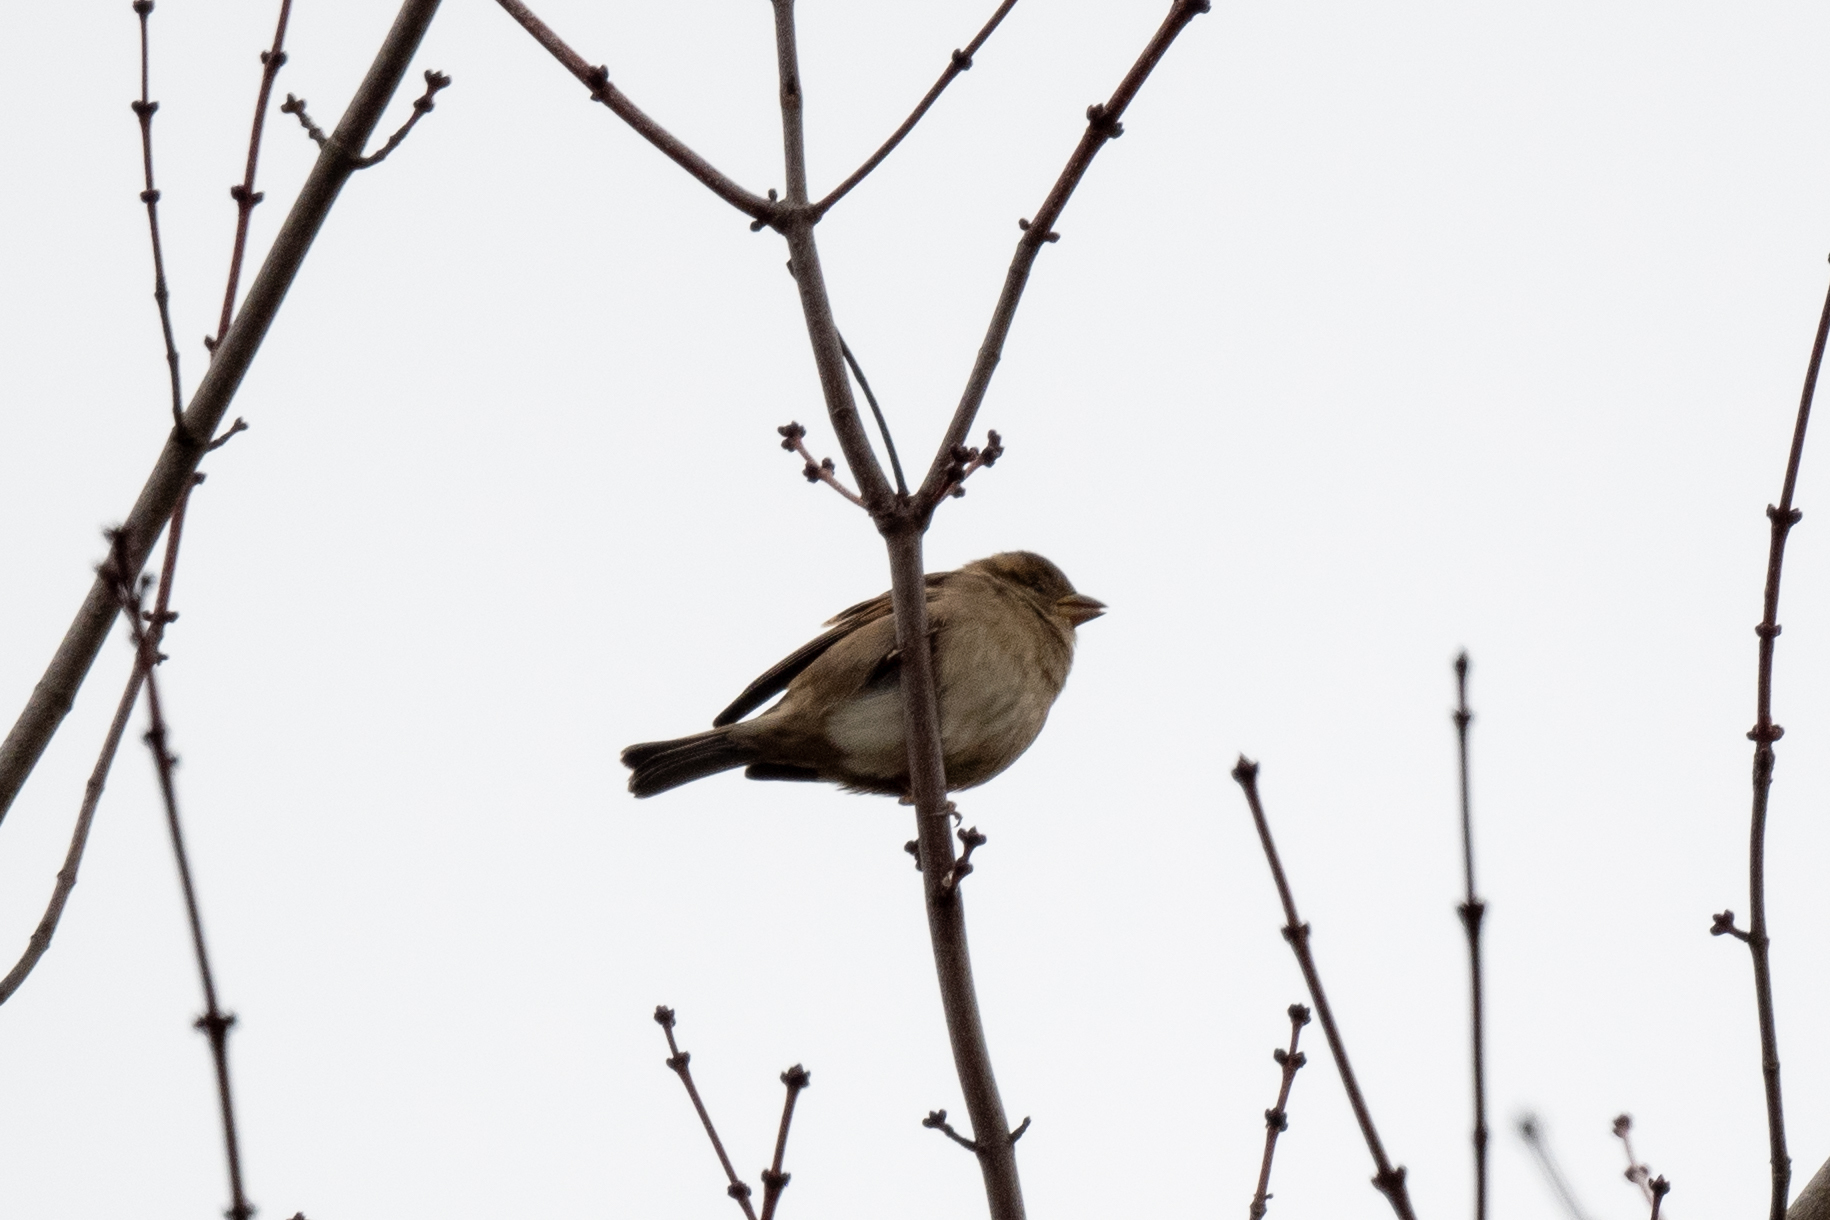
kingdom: Animalia
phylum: Chordata
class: Aves
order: Passeriformes
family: Passeridae
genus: Passer
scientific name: Passer domesticus
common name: House sparrow
